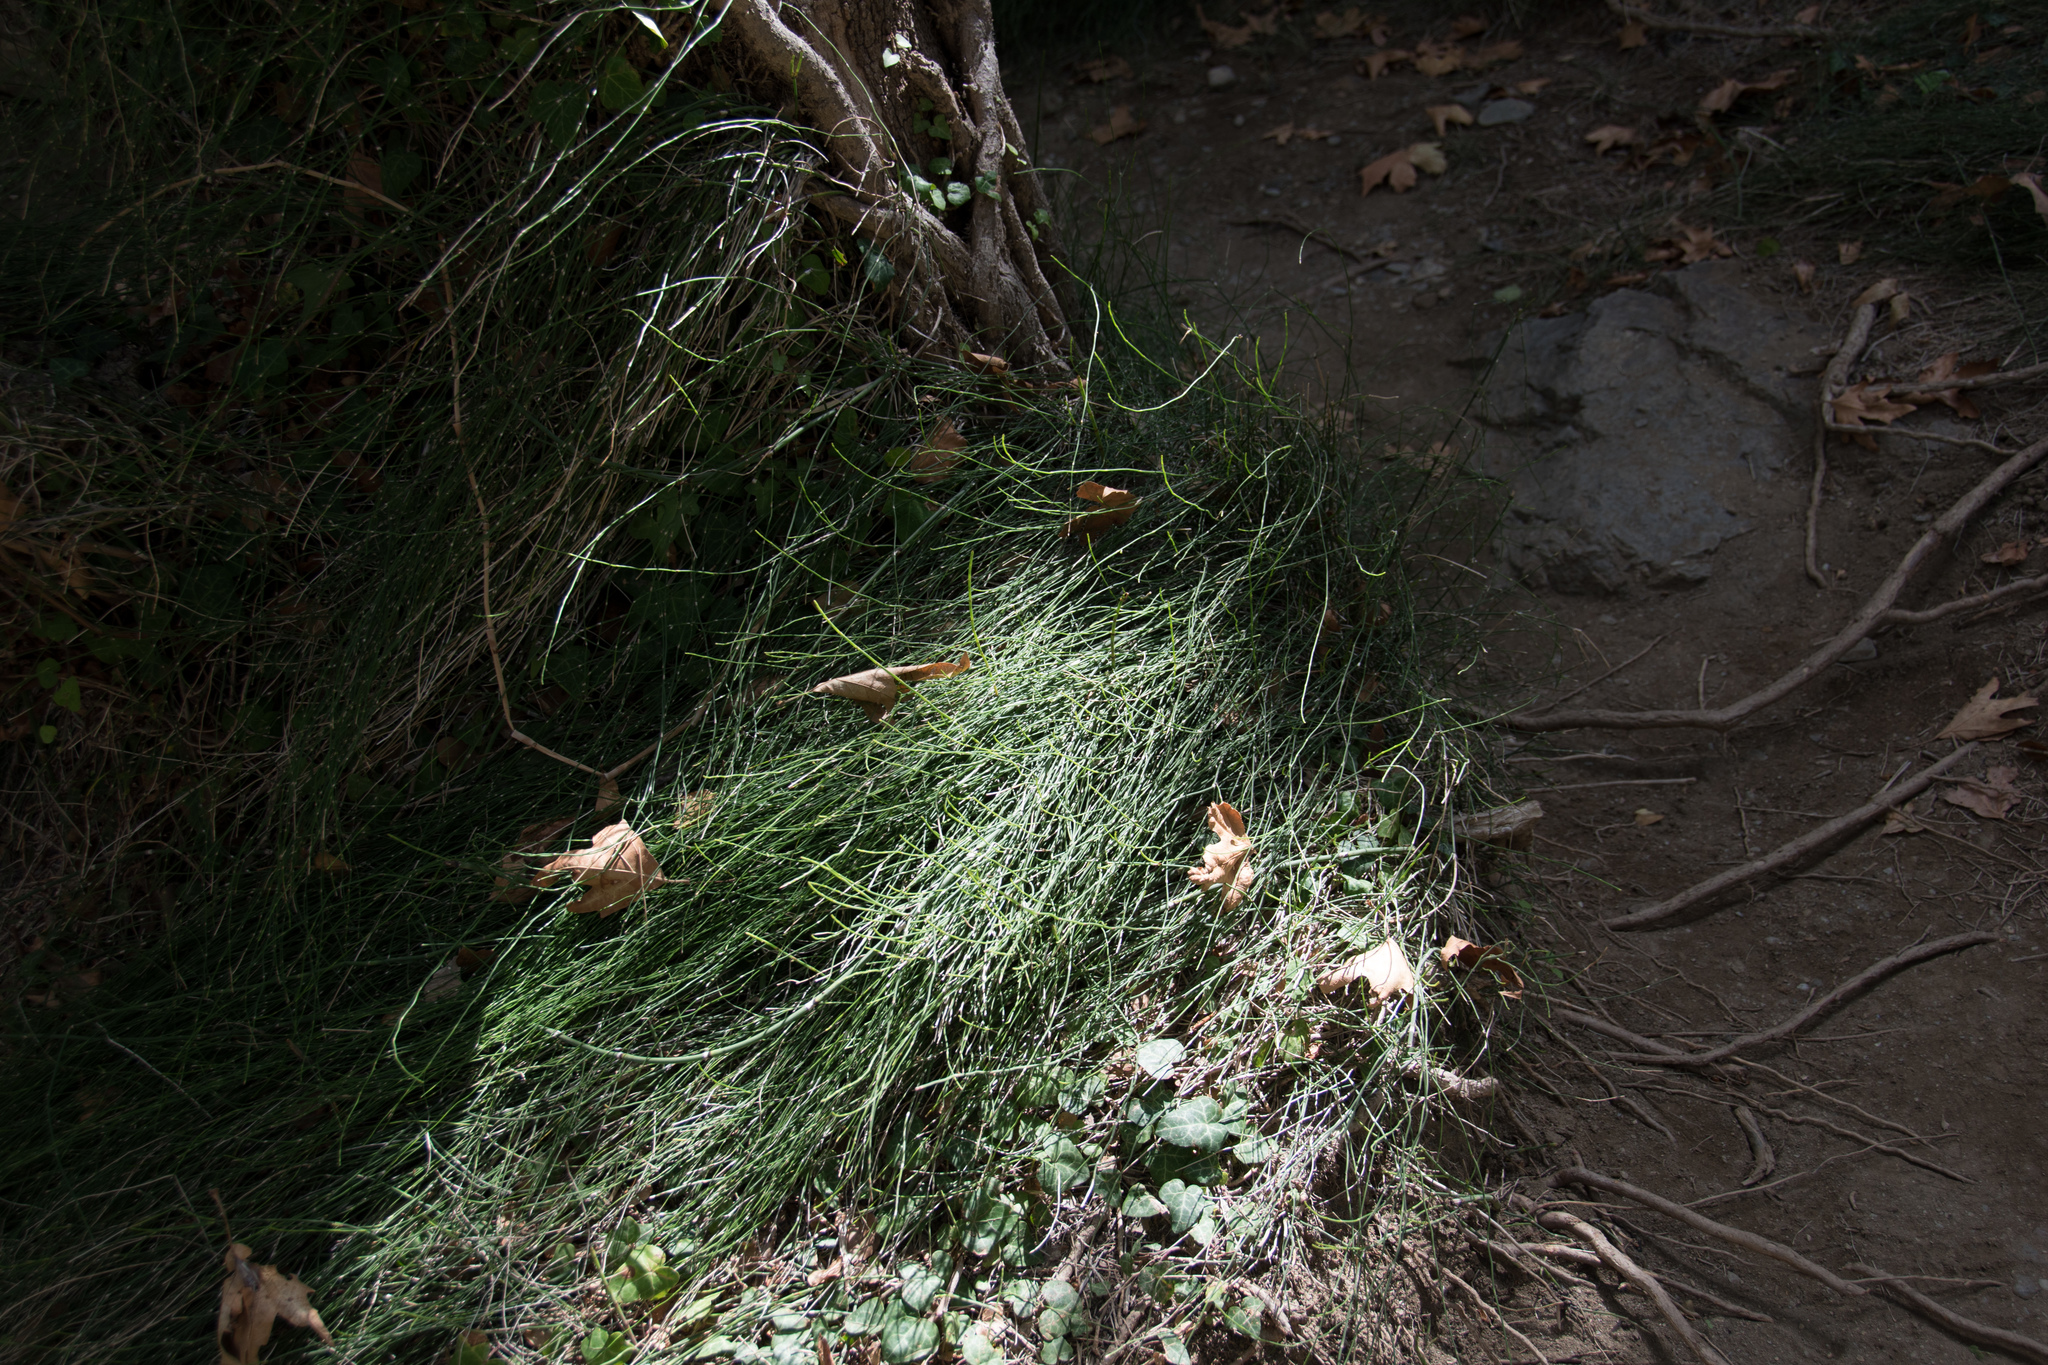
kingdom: Plantae
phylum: Tracheophyta
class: Polypodiopsida
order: Equisetales
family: Equisetaceae
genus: Equisetum
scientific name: Equisetum ramosissimum
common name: Branched horsetail
